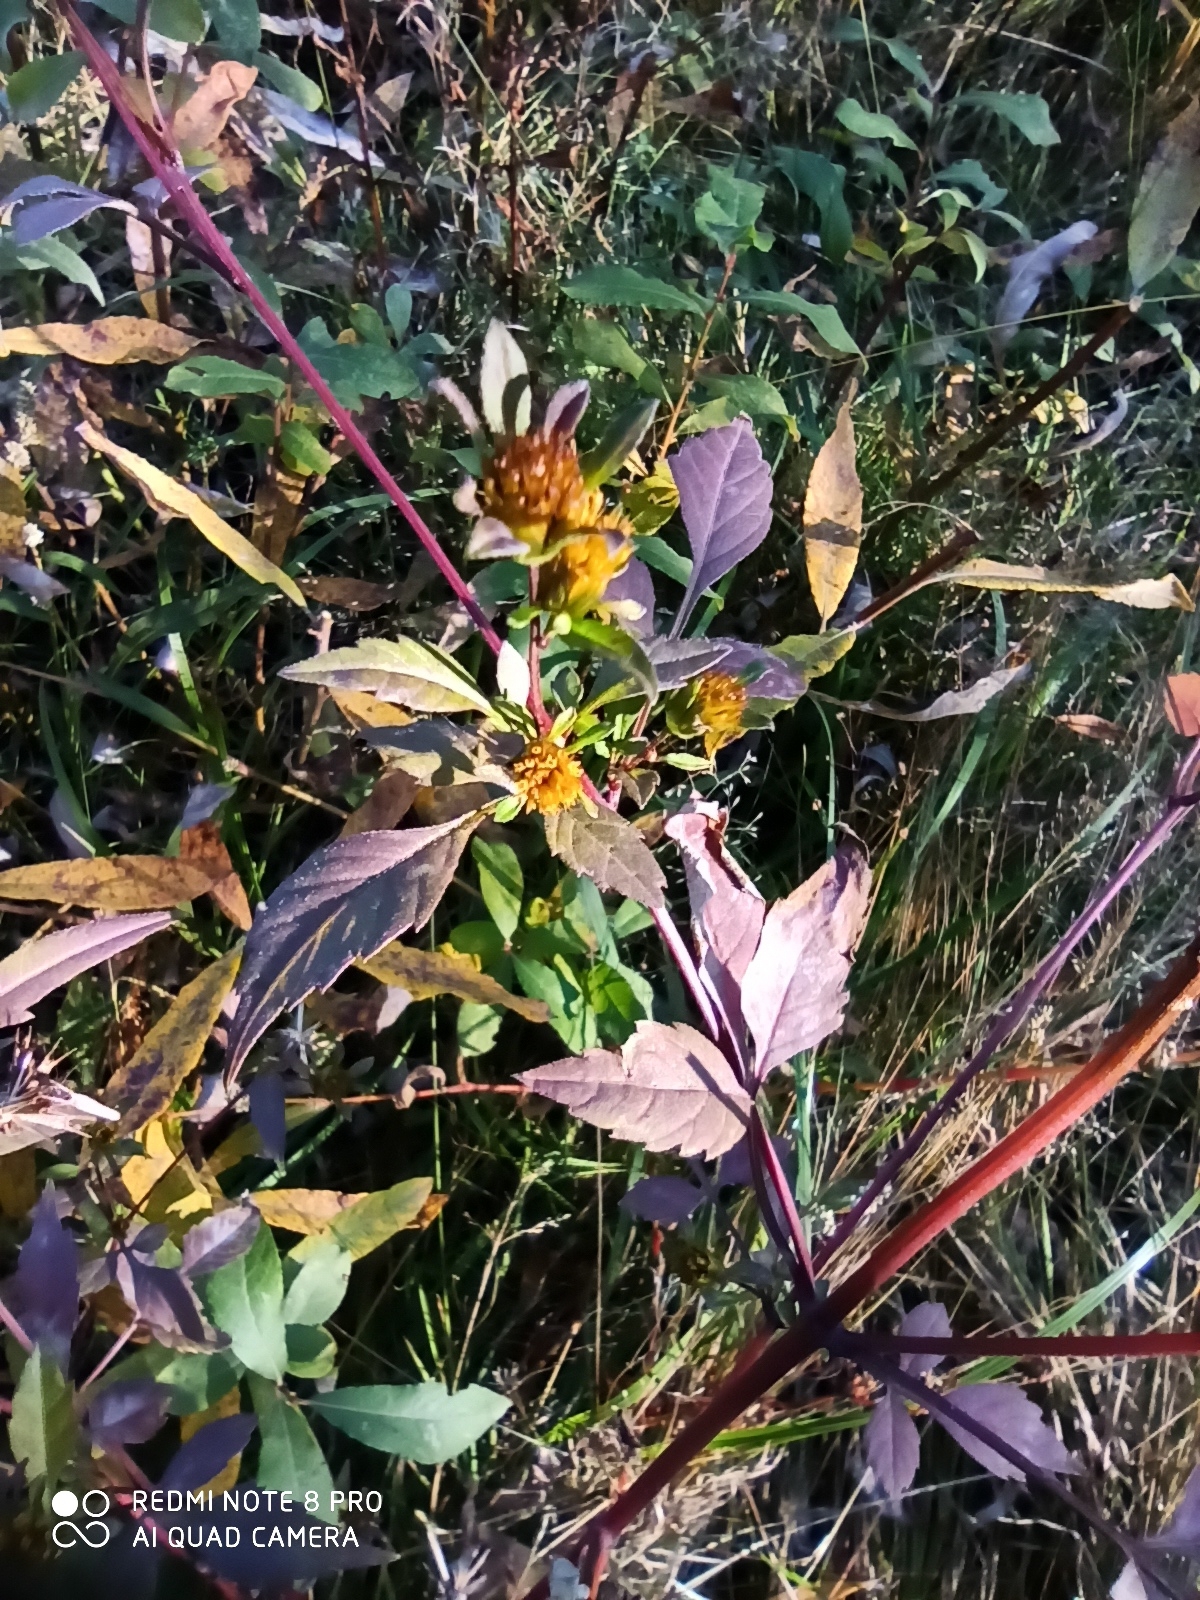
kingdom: Plantae
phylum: Tracheophyta
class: Magnoliopsida
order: Asterales
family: Asteraceae
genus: Bidens
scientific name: Bidens frondosa
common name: Beggarticks
